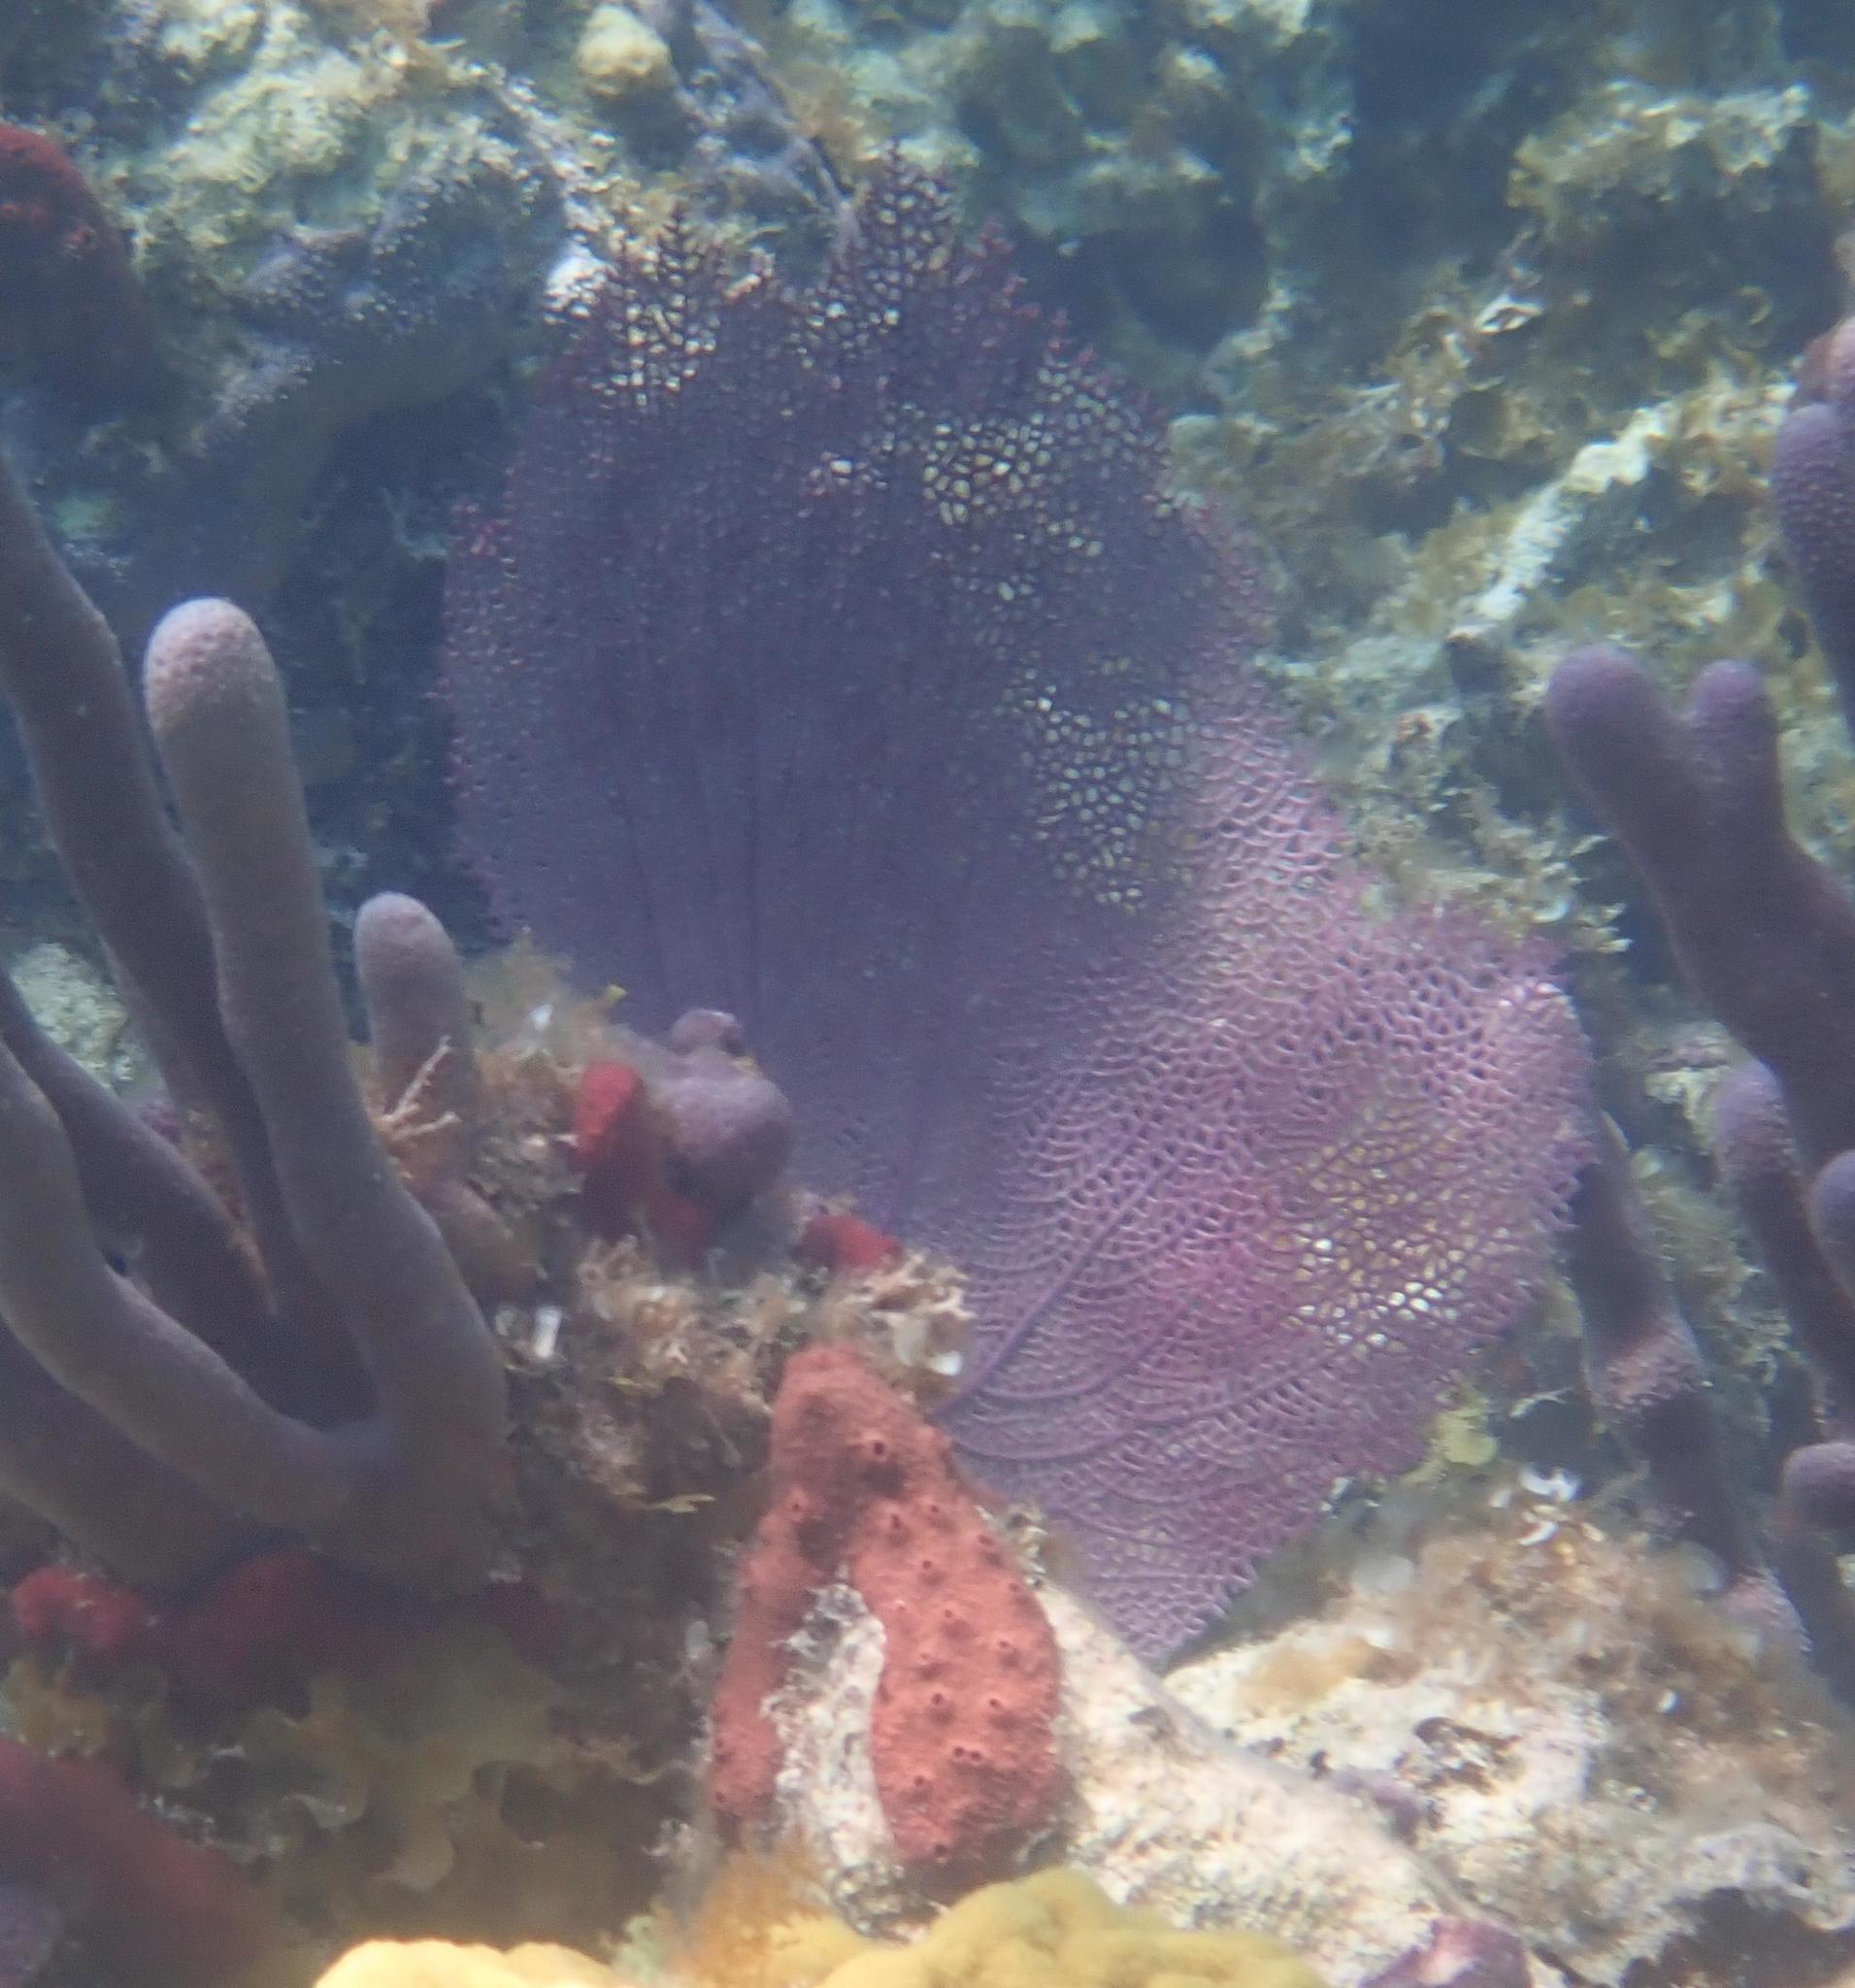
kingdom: Animalia
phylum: Cnidaria
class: Anthozoa
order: Malacalcyonacea
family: Gorgoniidae
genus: Gorgonia
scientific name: Gorgonia ventalina
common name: Common sea fan
